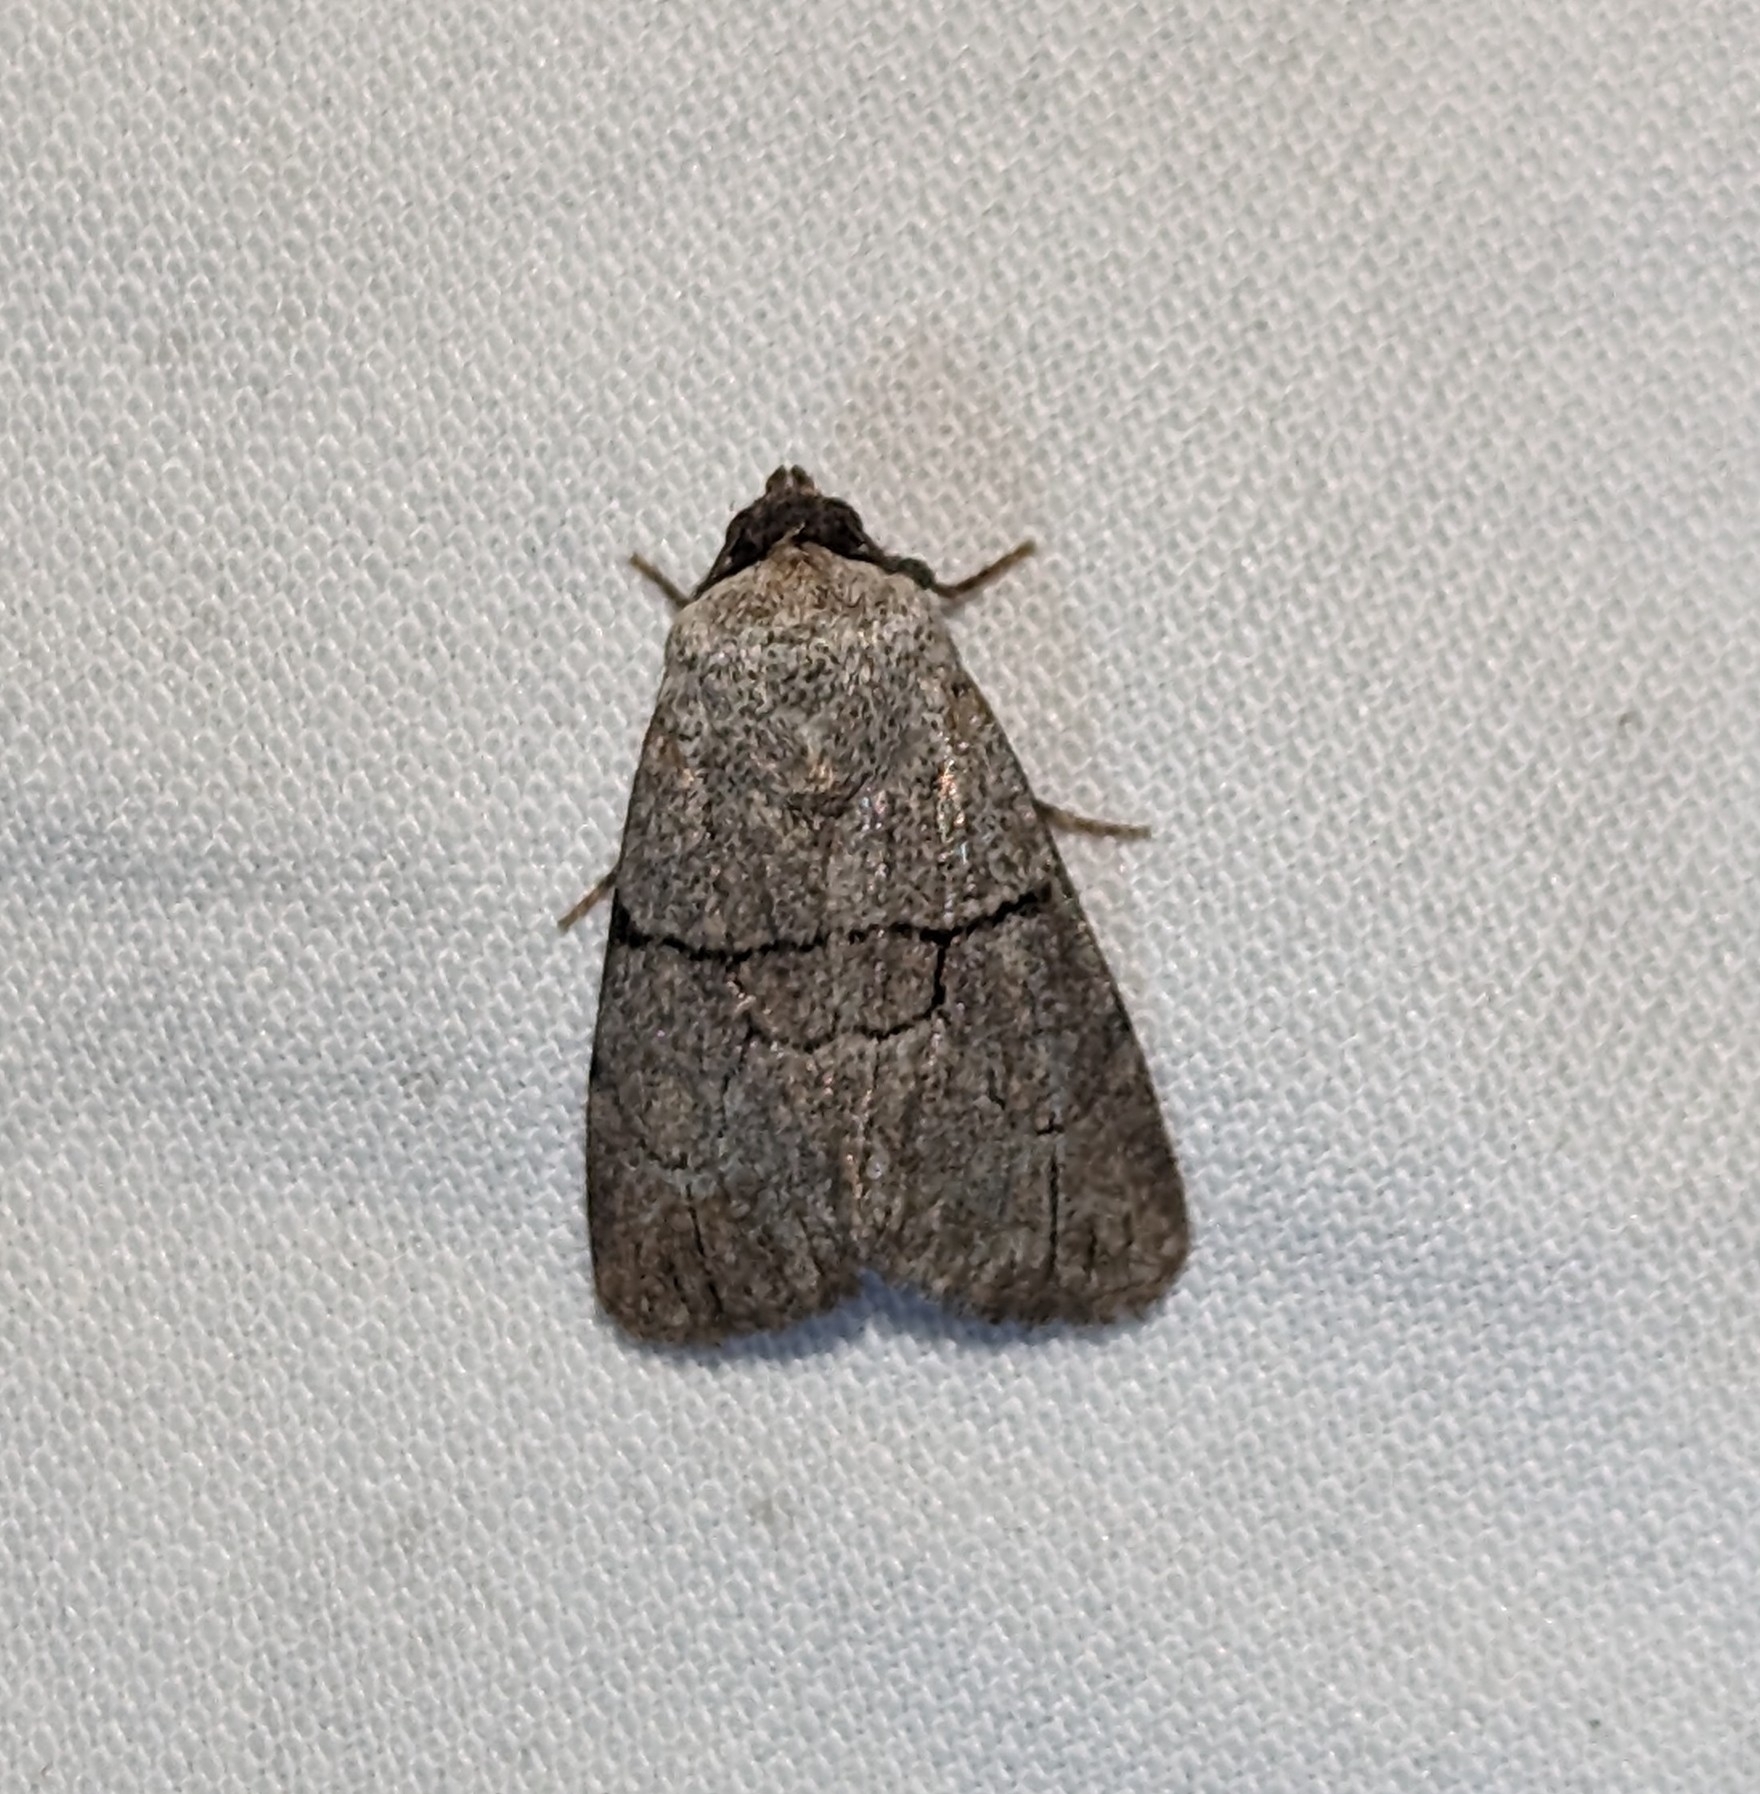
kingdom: Animalia
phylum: Arthropoda
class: Insecta
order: Lepidoptera
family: Noctuidae
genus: Sympistis
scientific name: Sympistis greyi
